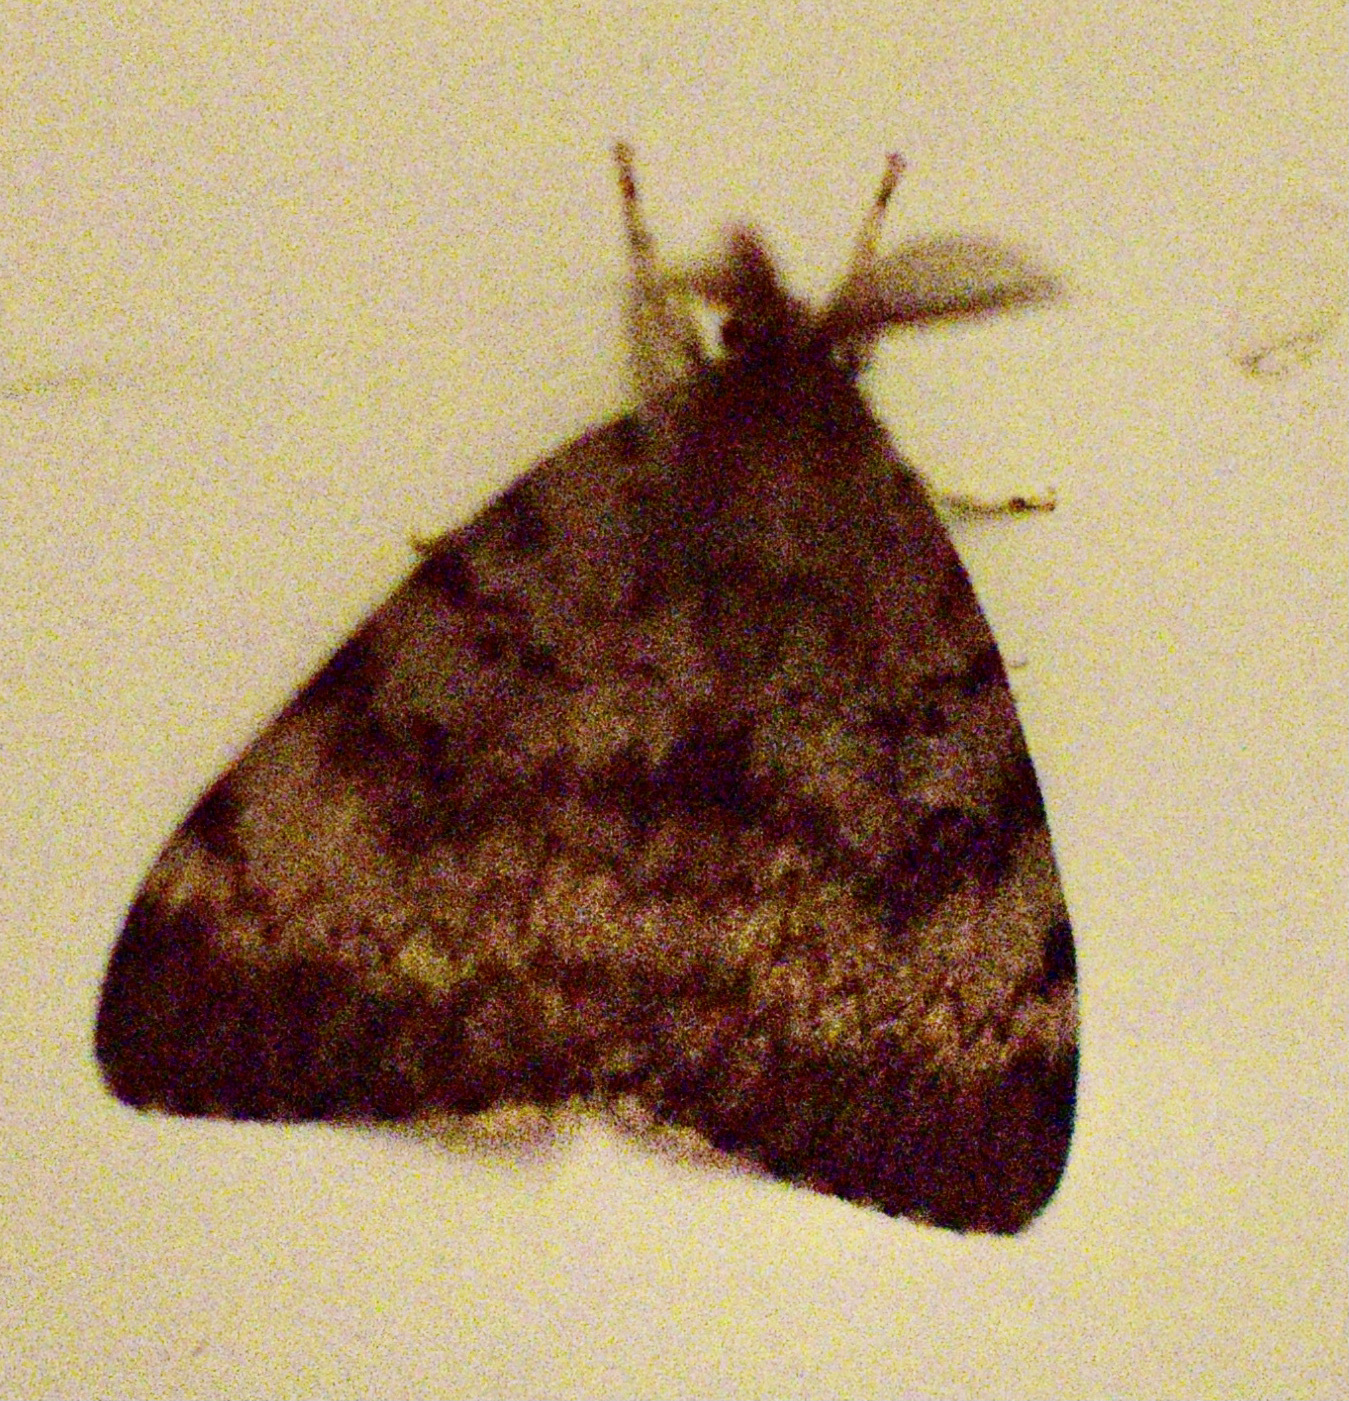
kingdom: Animalia
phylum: Arthropoda
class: Insecta
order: Lepidoptera
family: Erebidae
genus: Lymantria
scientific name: Lymantria dispar
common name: Gypsy moth
